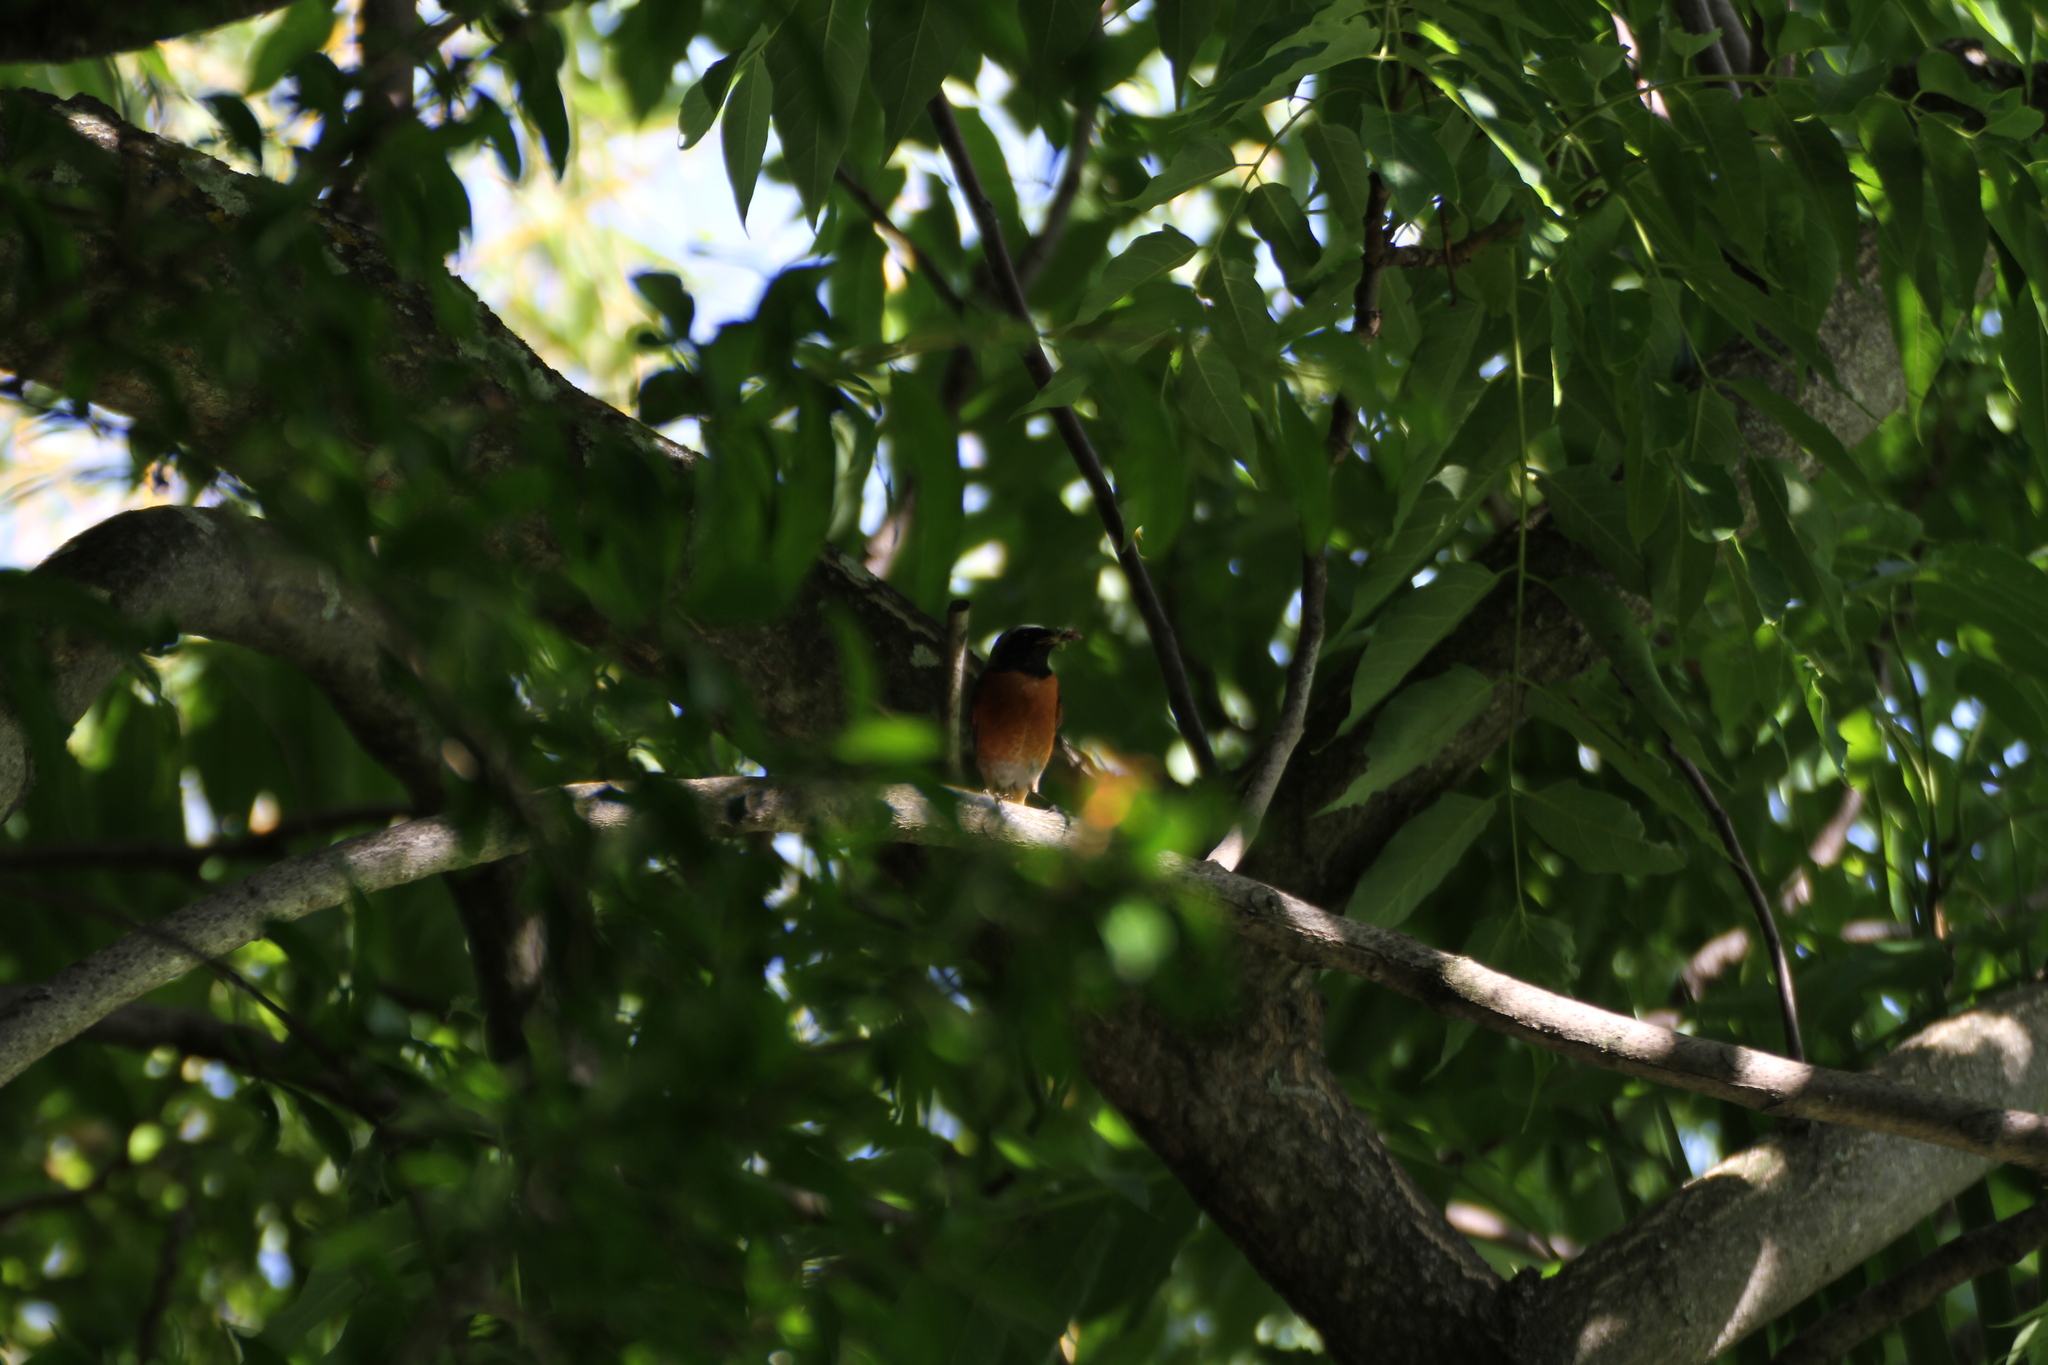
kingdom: Animalia
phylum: Chordata
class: Aves
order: Passeriformes
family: Muscicapidae
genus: Phoenicurus
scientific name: Phoenicurus phoenicurus
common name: Common redstart
